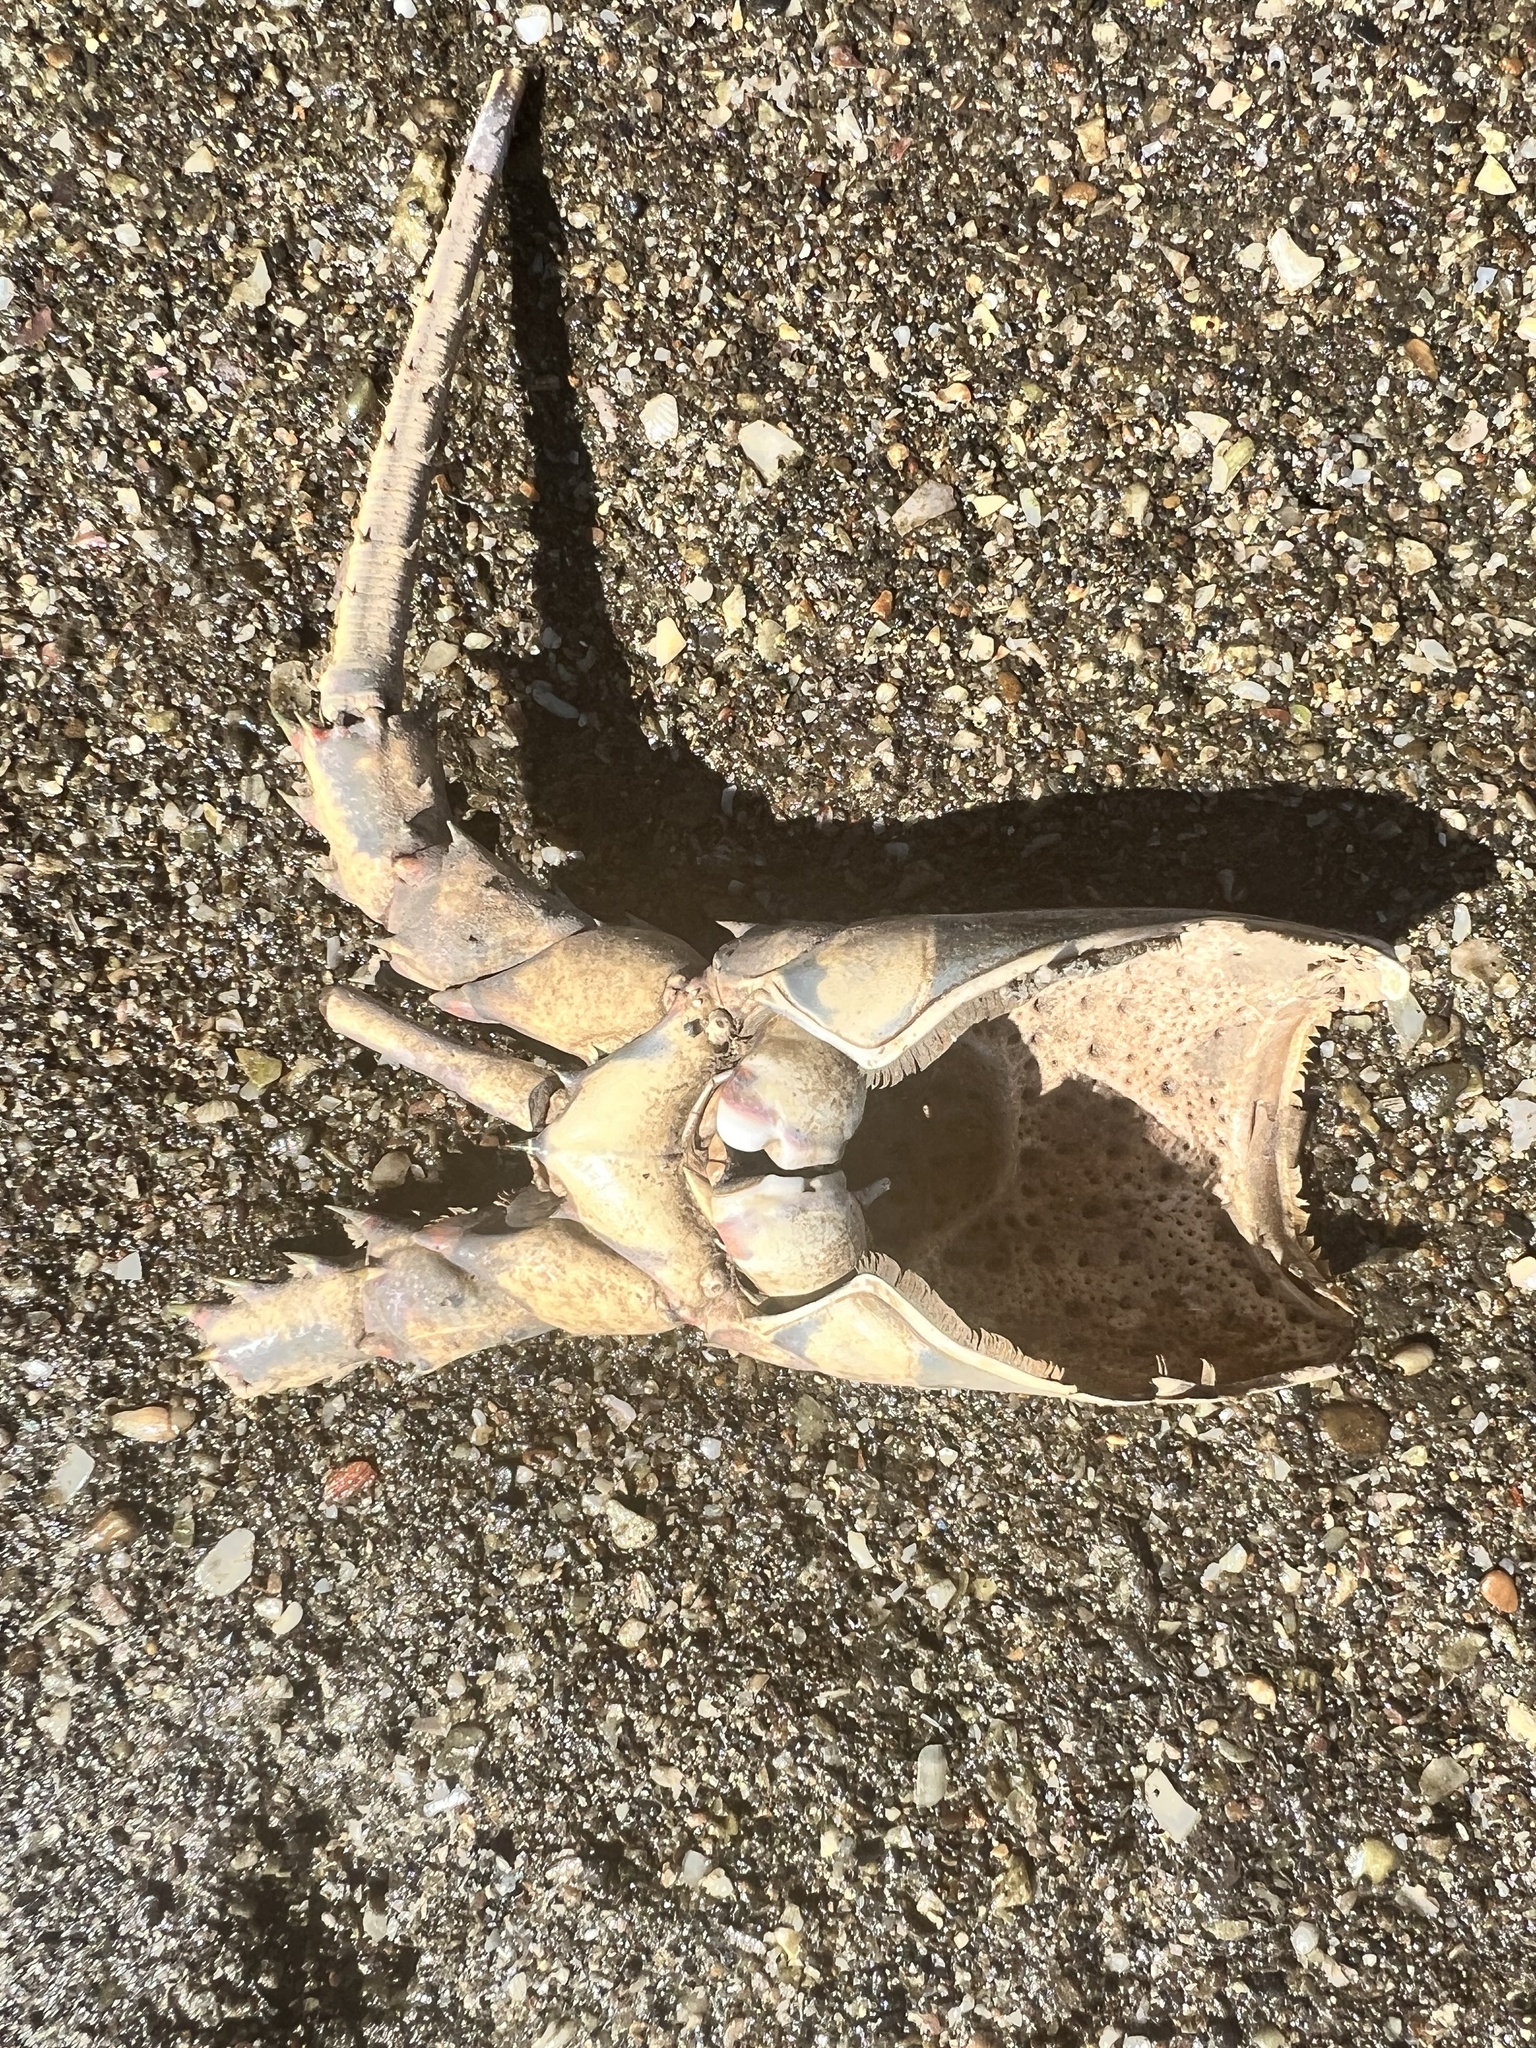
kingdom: Animalia
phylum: Arthropoda
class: Malacostraca
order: Decapoda
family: Palinuridae
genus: Panulirus
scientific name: Panulirus gracilis
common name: Green spiny lobster
